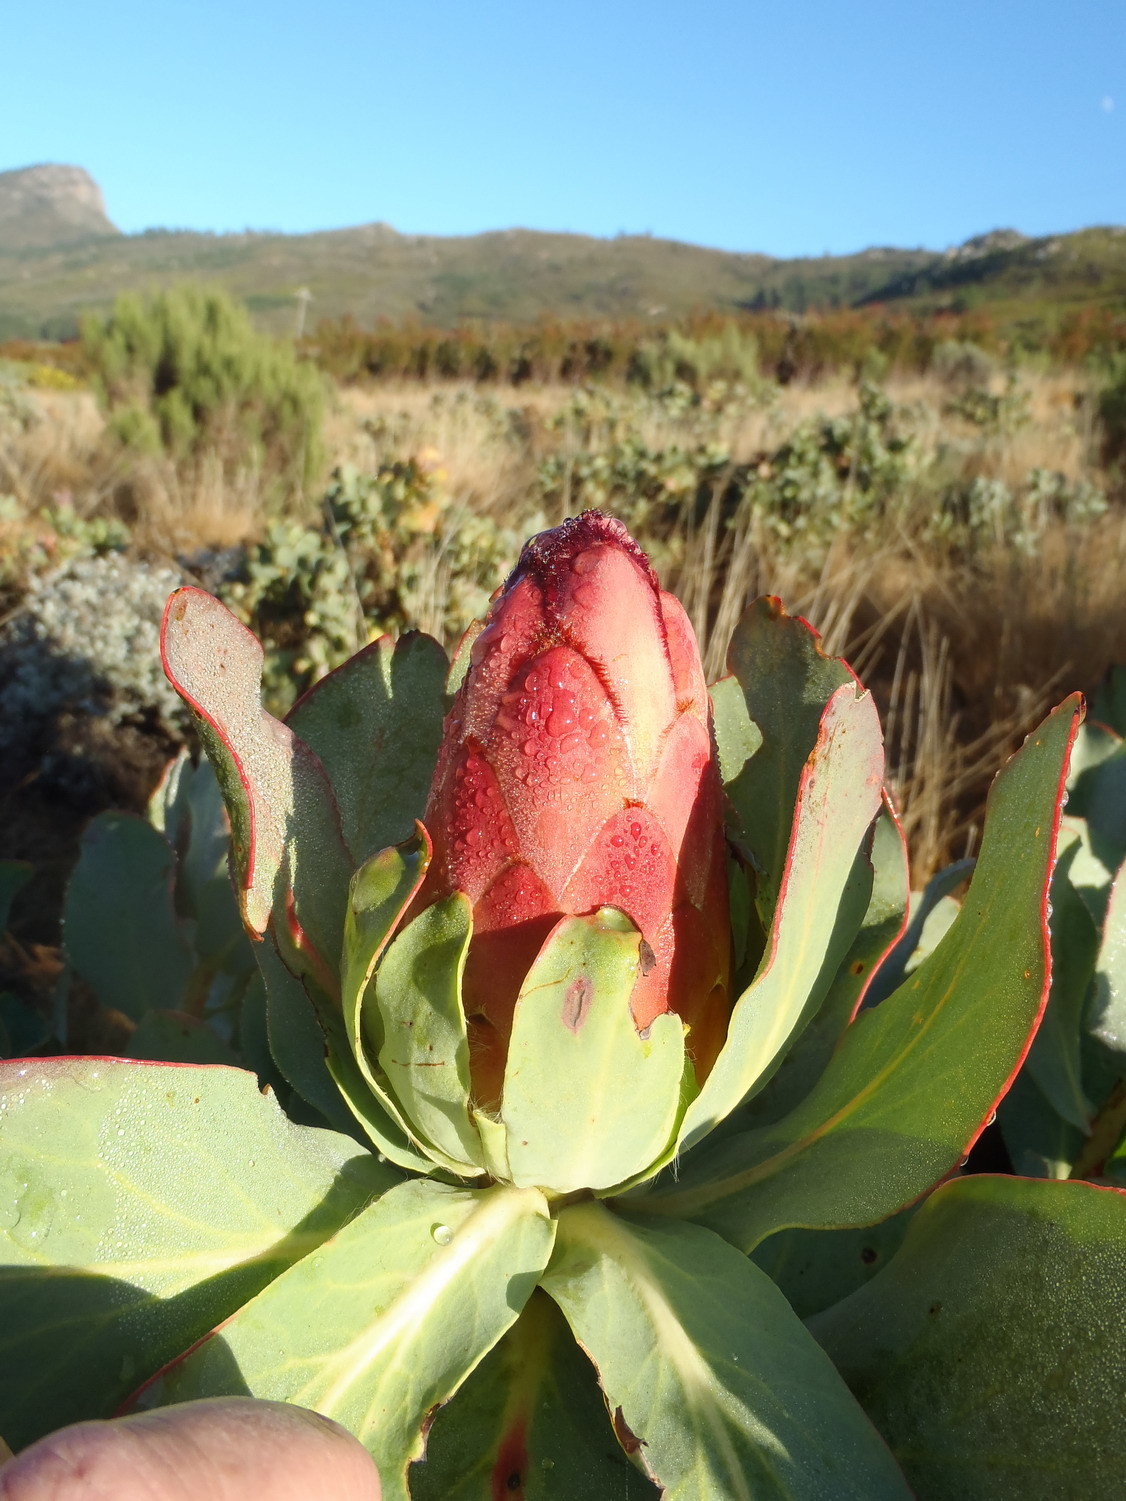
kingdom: Plantae
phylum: Tracheophyta
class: Magnoliopsida
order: Proteales
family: Proteaceae
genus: Protea
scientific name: Protea grandiceps
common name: Red sugarbush
